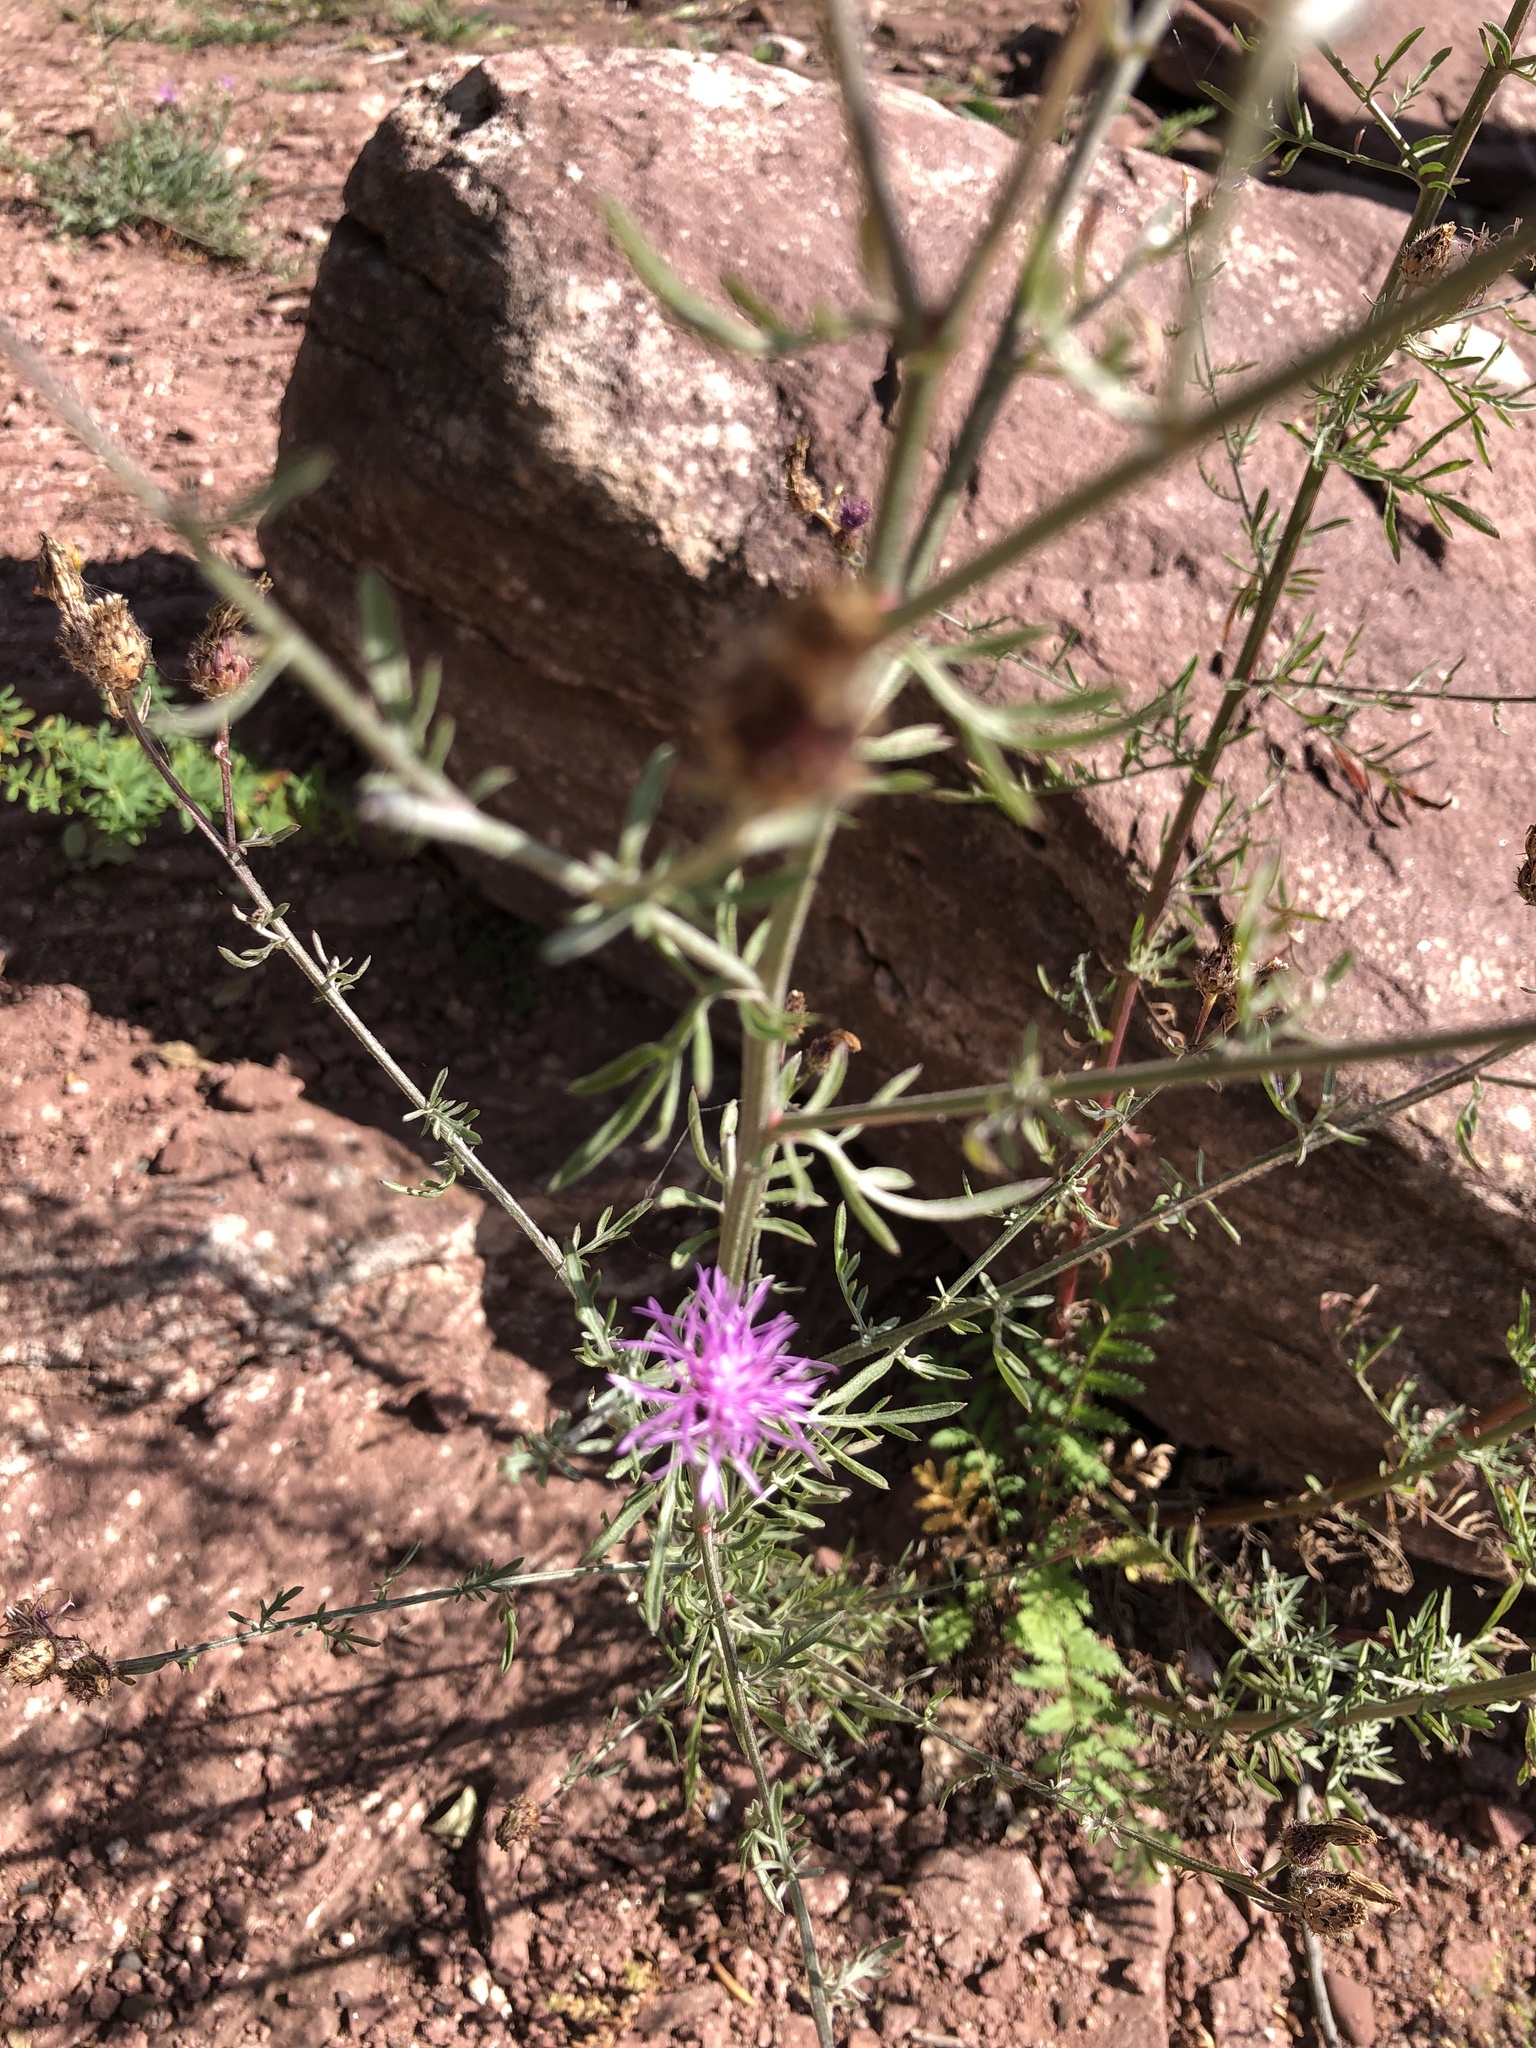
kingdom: Plantae
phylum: Tracheophyta
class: Magnoliopsida
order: Asterales
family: Asteraceae
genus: Centaurea
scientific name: Centaurea stoebe
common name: Spotted knapweed
